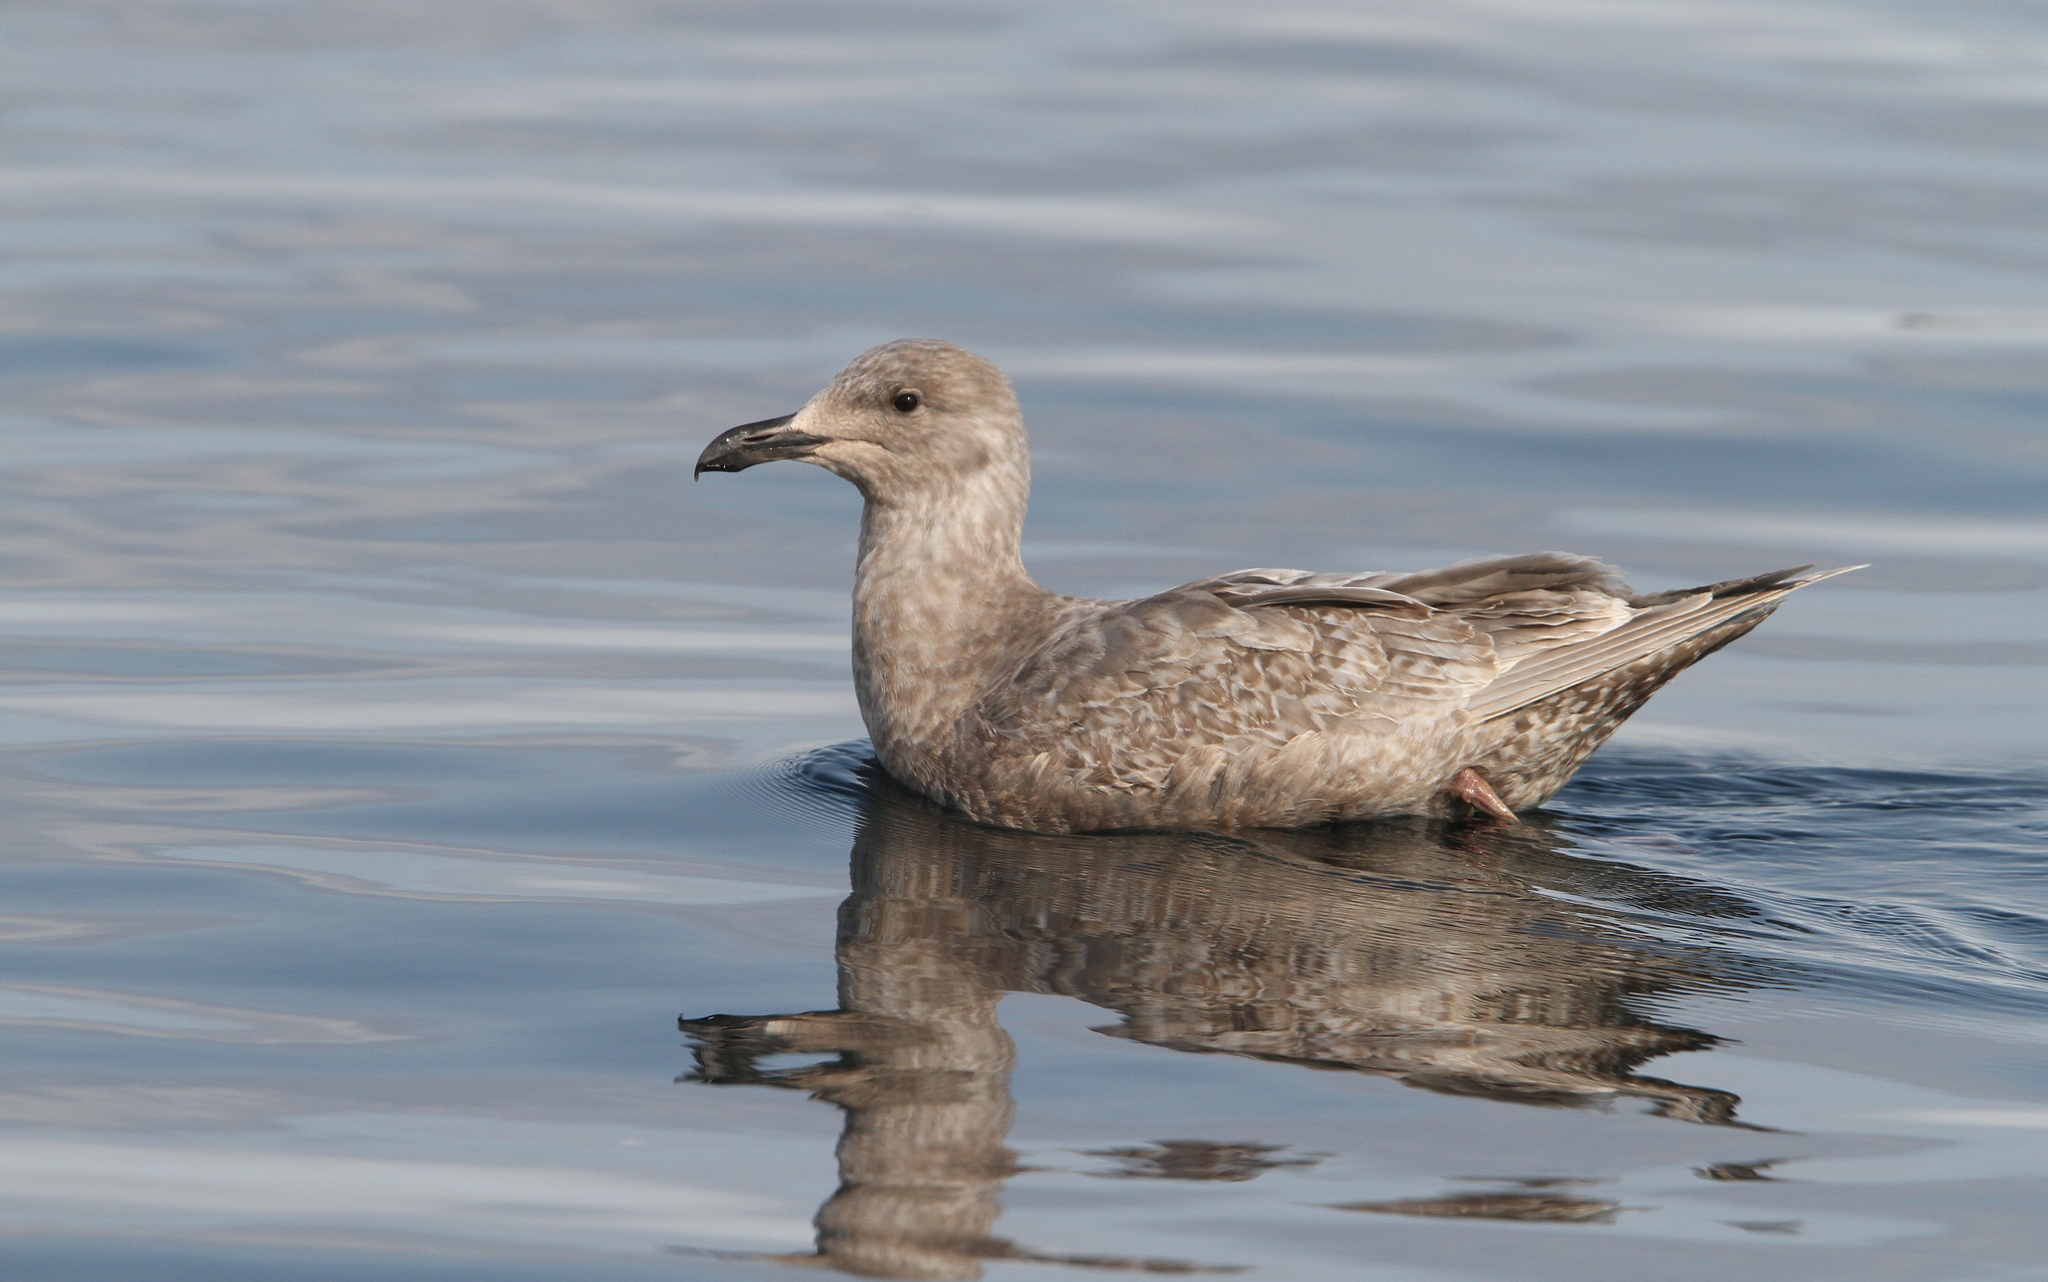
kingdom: Animalia
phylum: Chordata
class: Aves
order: Charadriiformes
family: Laridae
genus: Larus
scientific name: Larus glaucescens
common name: Glaucous-winged gull
